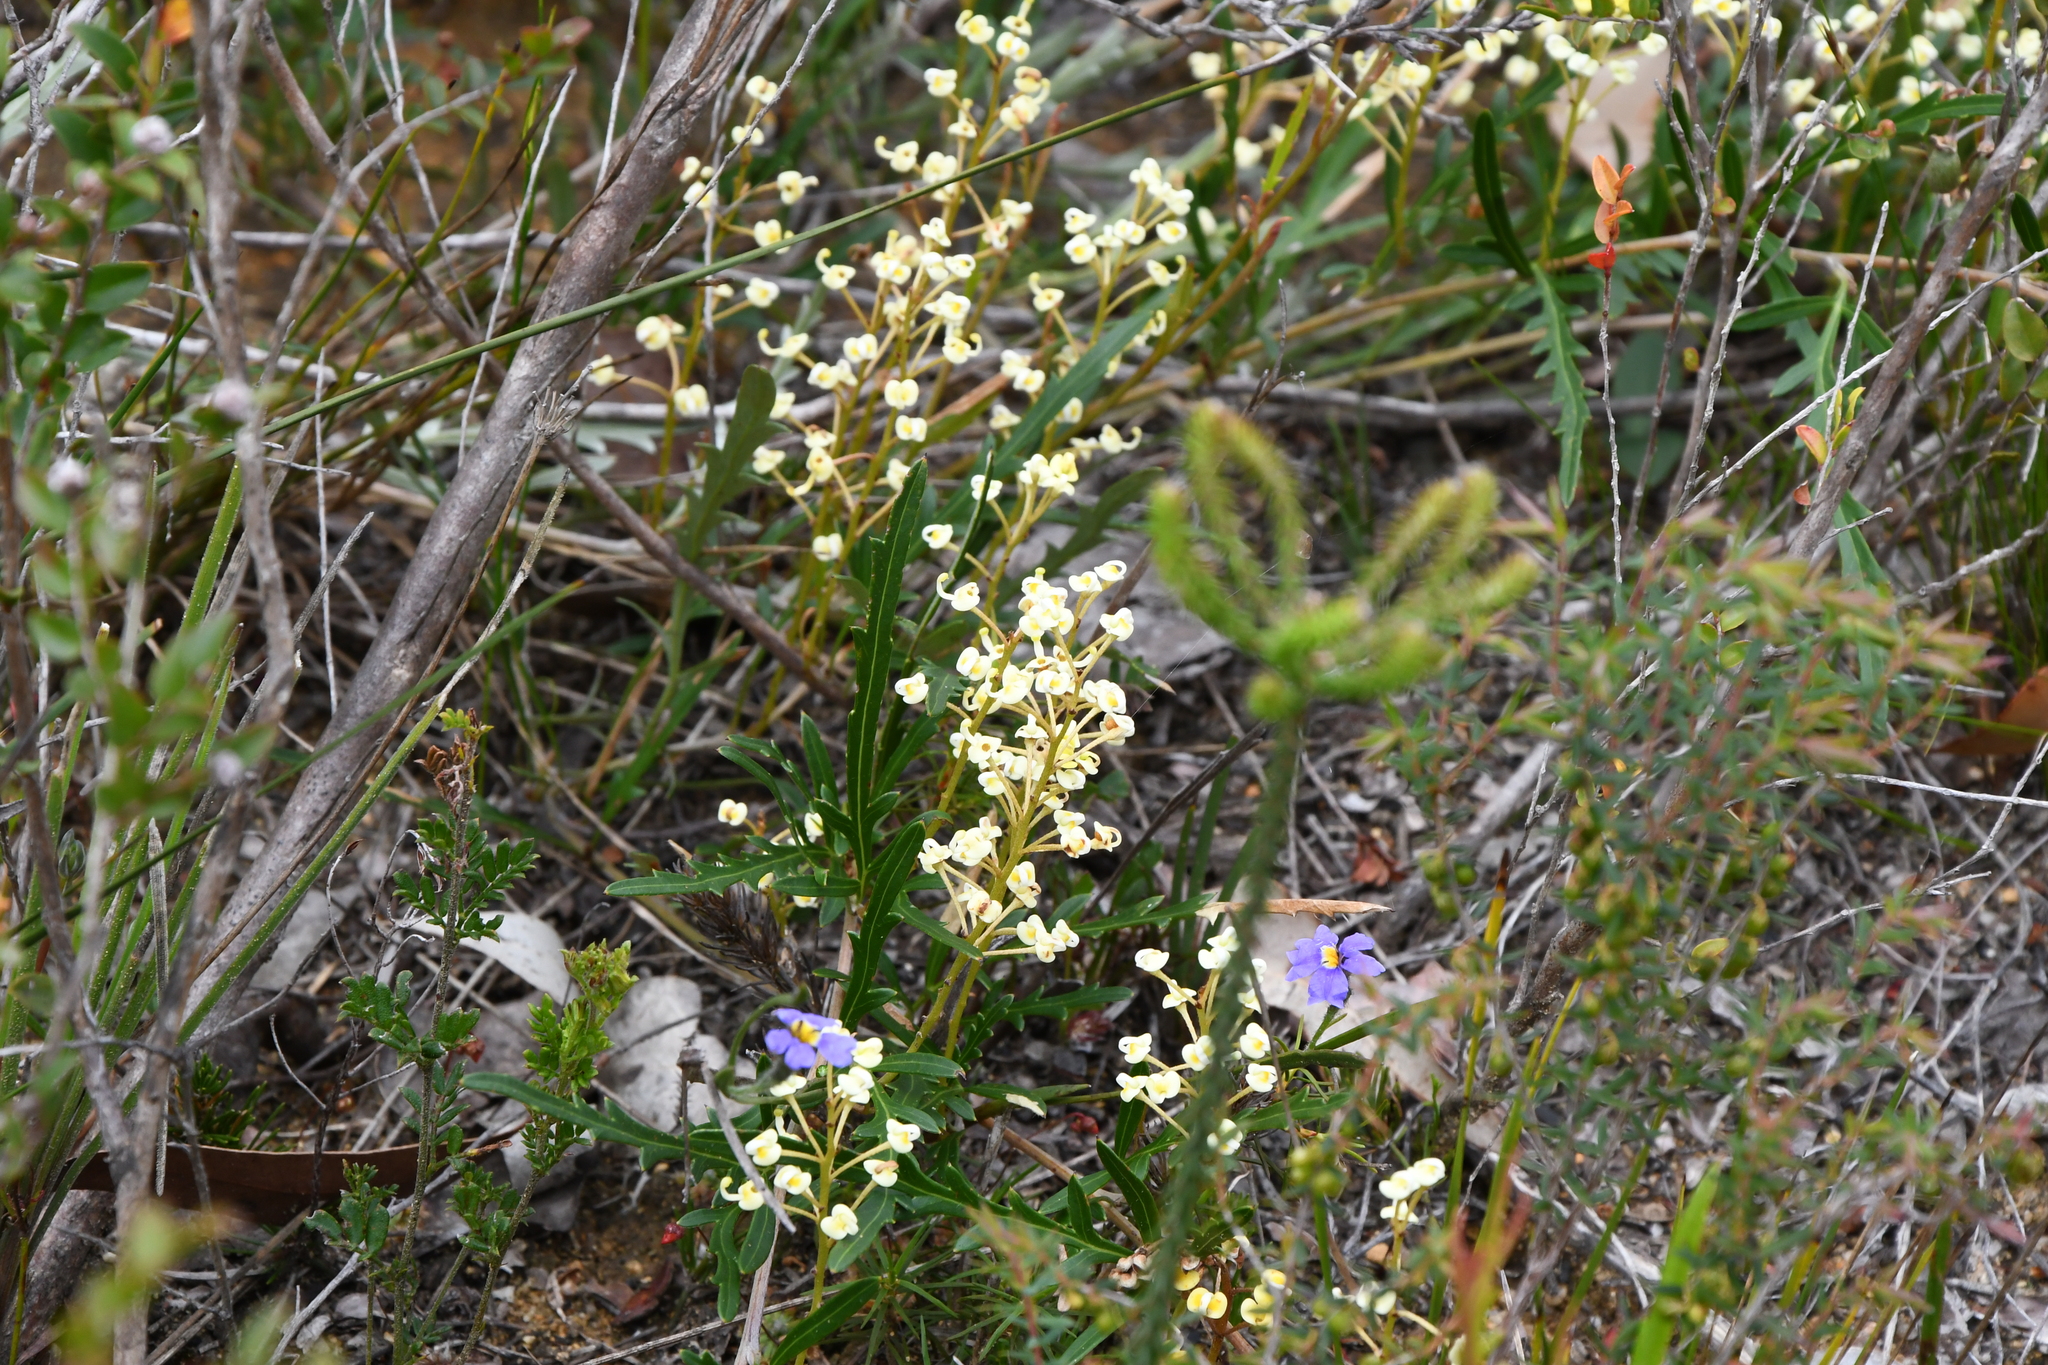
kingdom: Plantae
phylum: Tracheophyta
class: Magnoliopsida
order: Proteales
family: Proteaceae
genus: Grevillea
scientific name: Grevillea cirsiifolia
